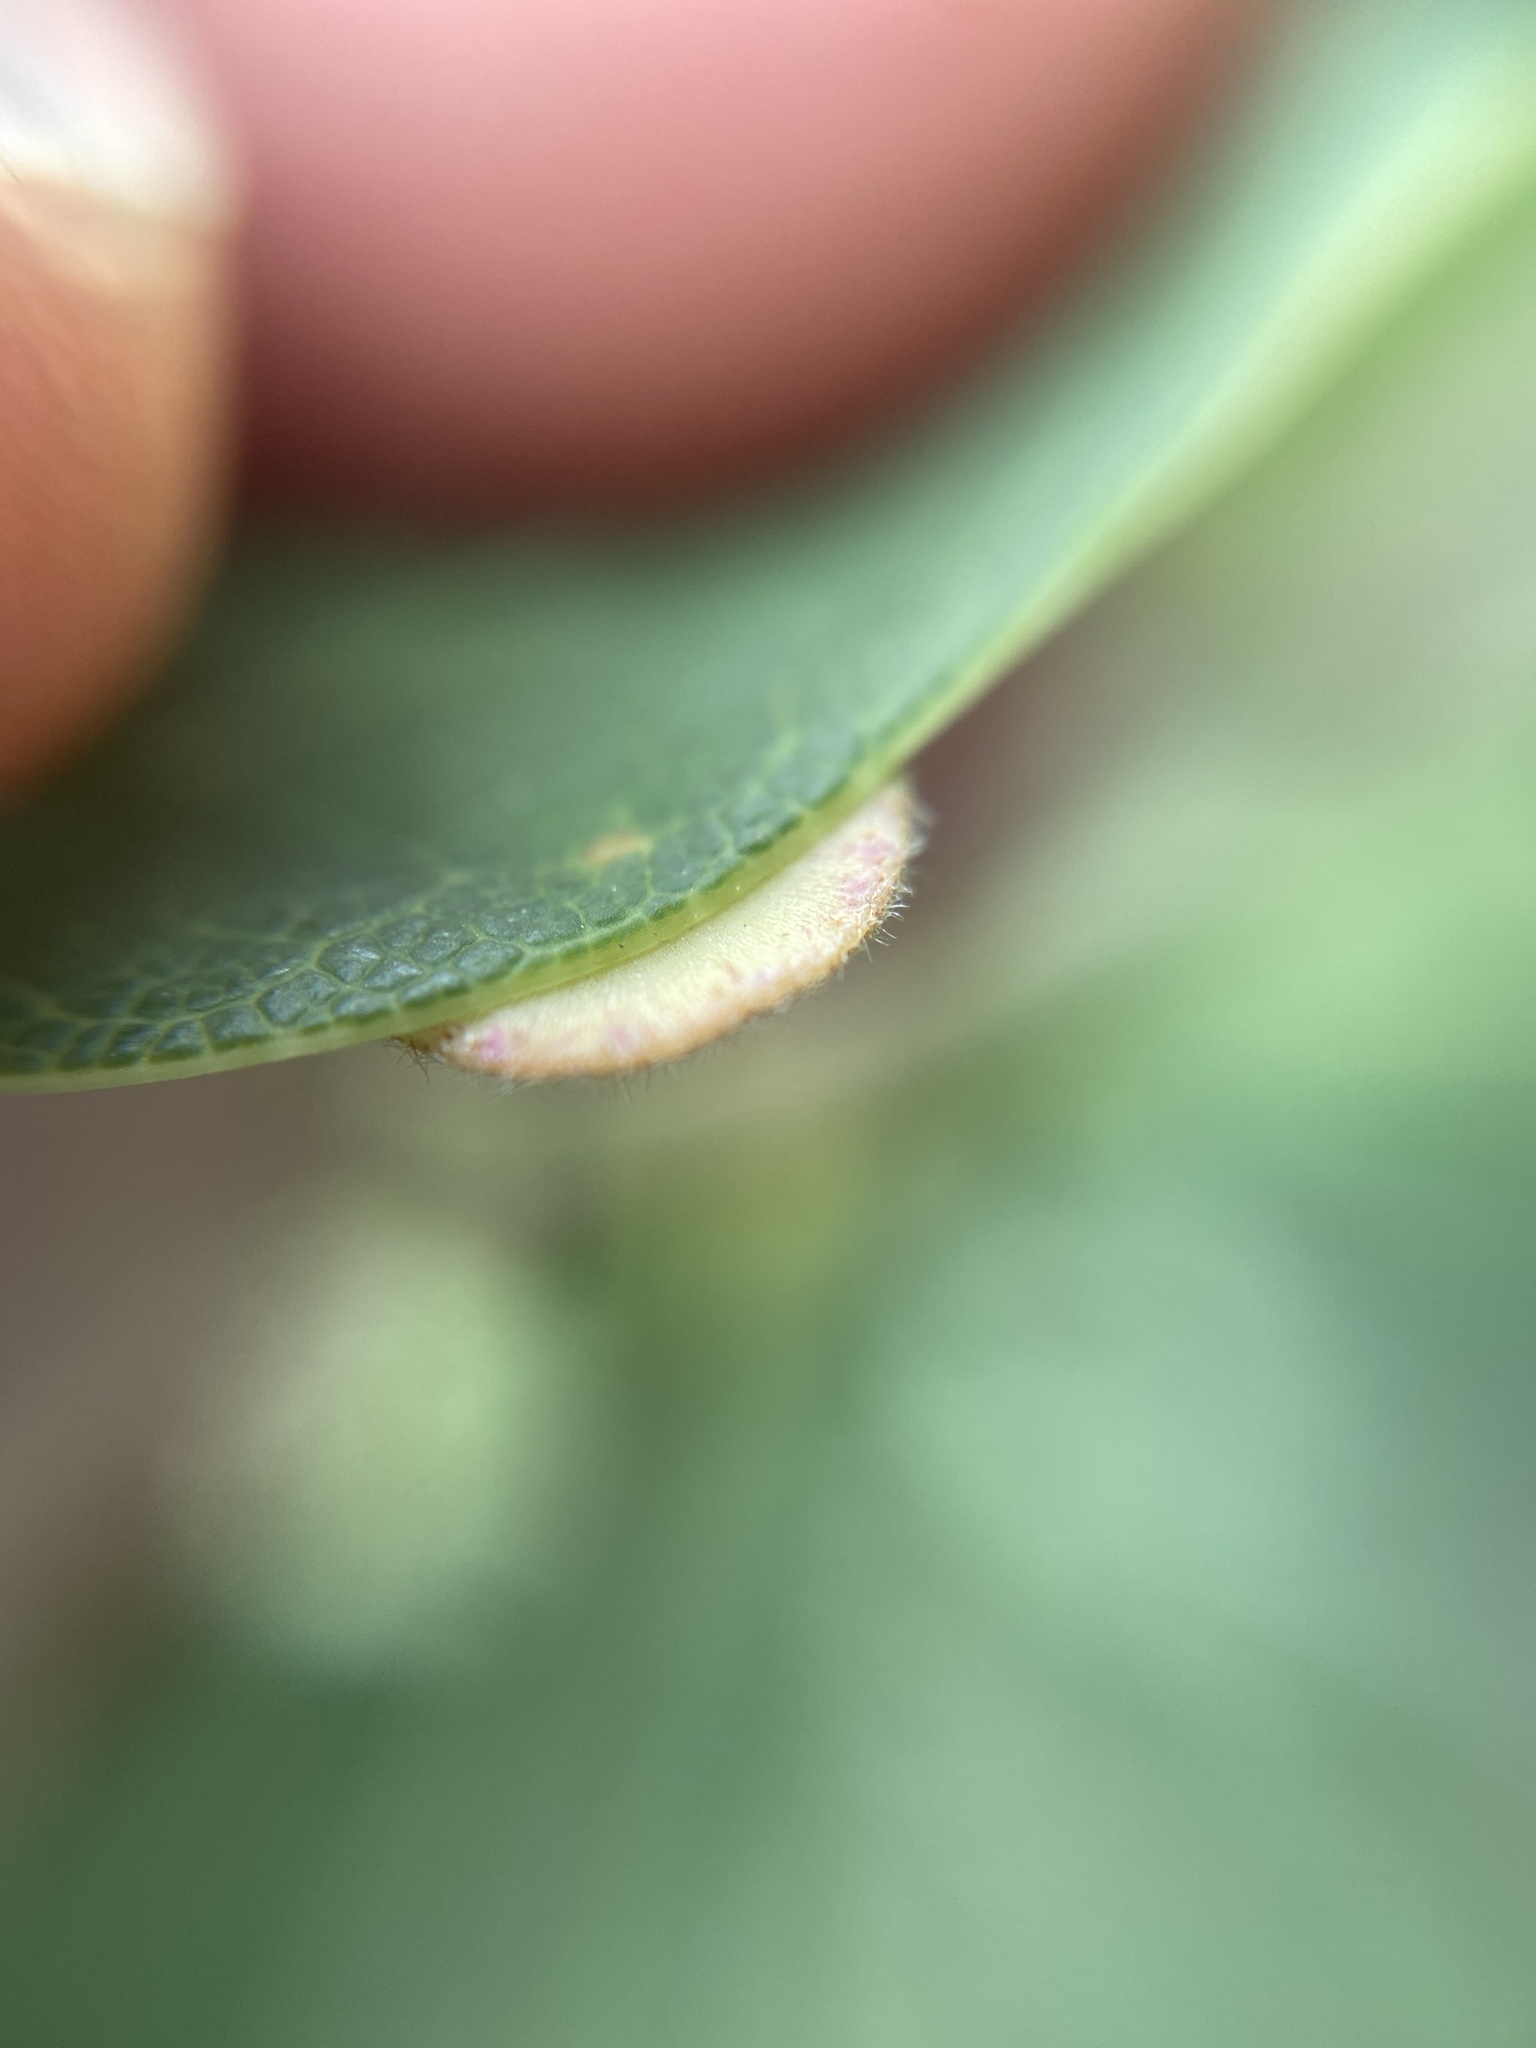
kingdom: Animalia
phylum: Arthropoda
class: Insecta
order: Hymenoptera
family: Cynipidae
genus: Neuroterus
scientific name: Neuroterus quercusbaccarum
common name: Common spangle gall
